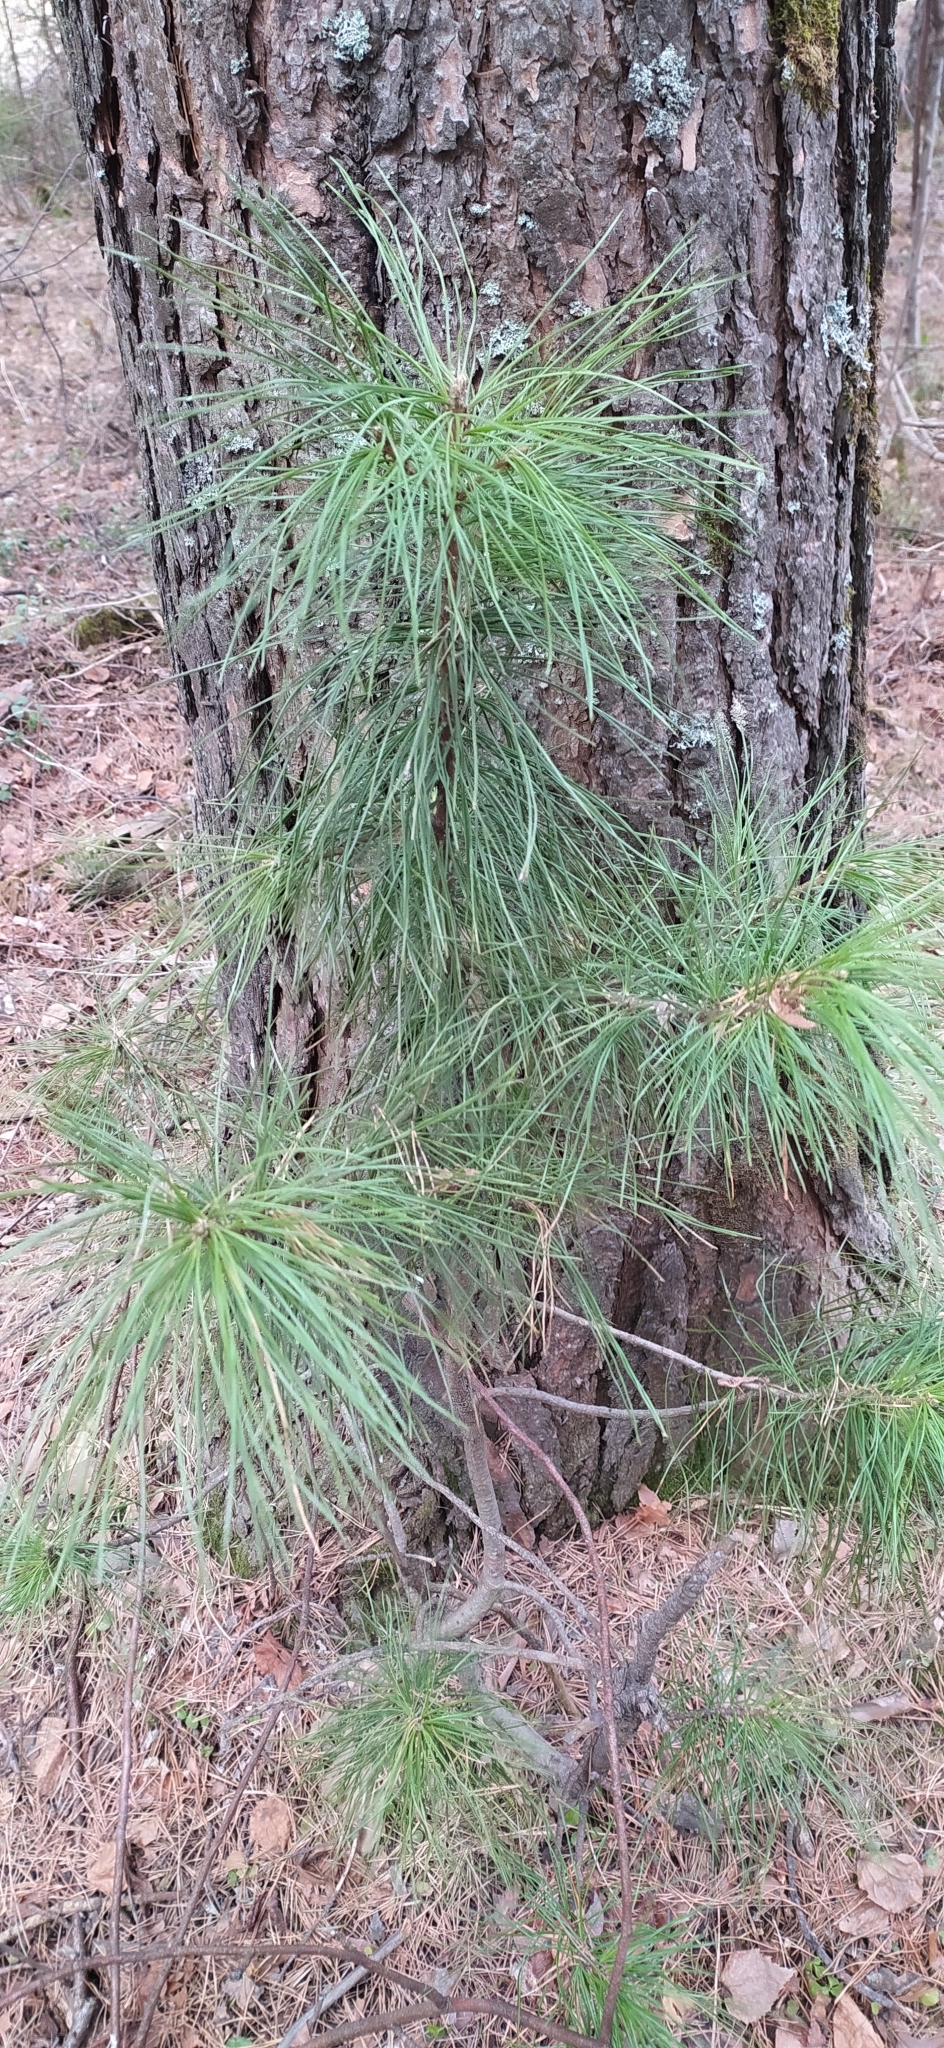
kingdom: Plantae
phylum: Tracheophyta
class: Pinopsida
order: Pinales
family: Pinaceae
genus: Pinus
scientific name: Pinus sibirica
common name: Siberian pine
